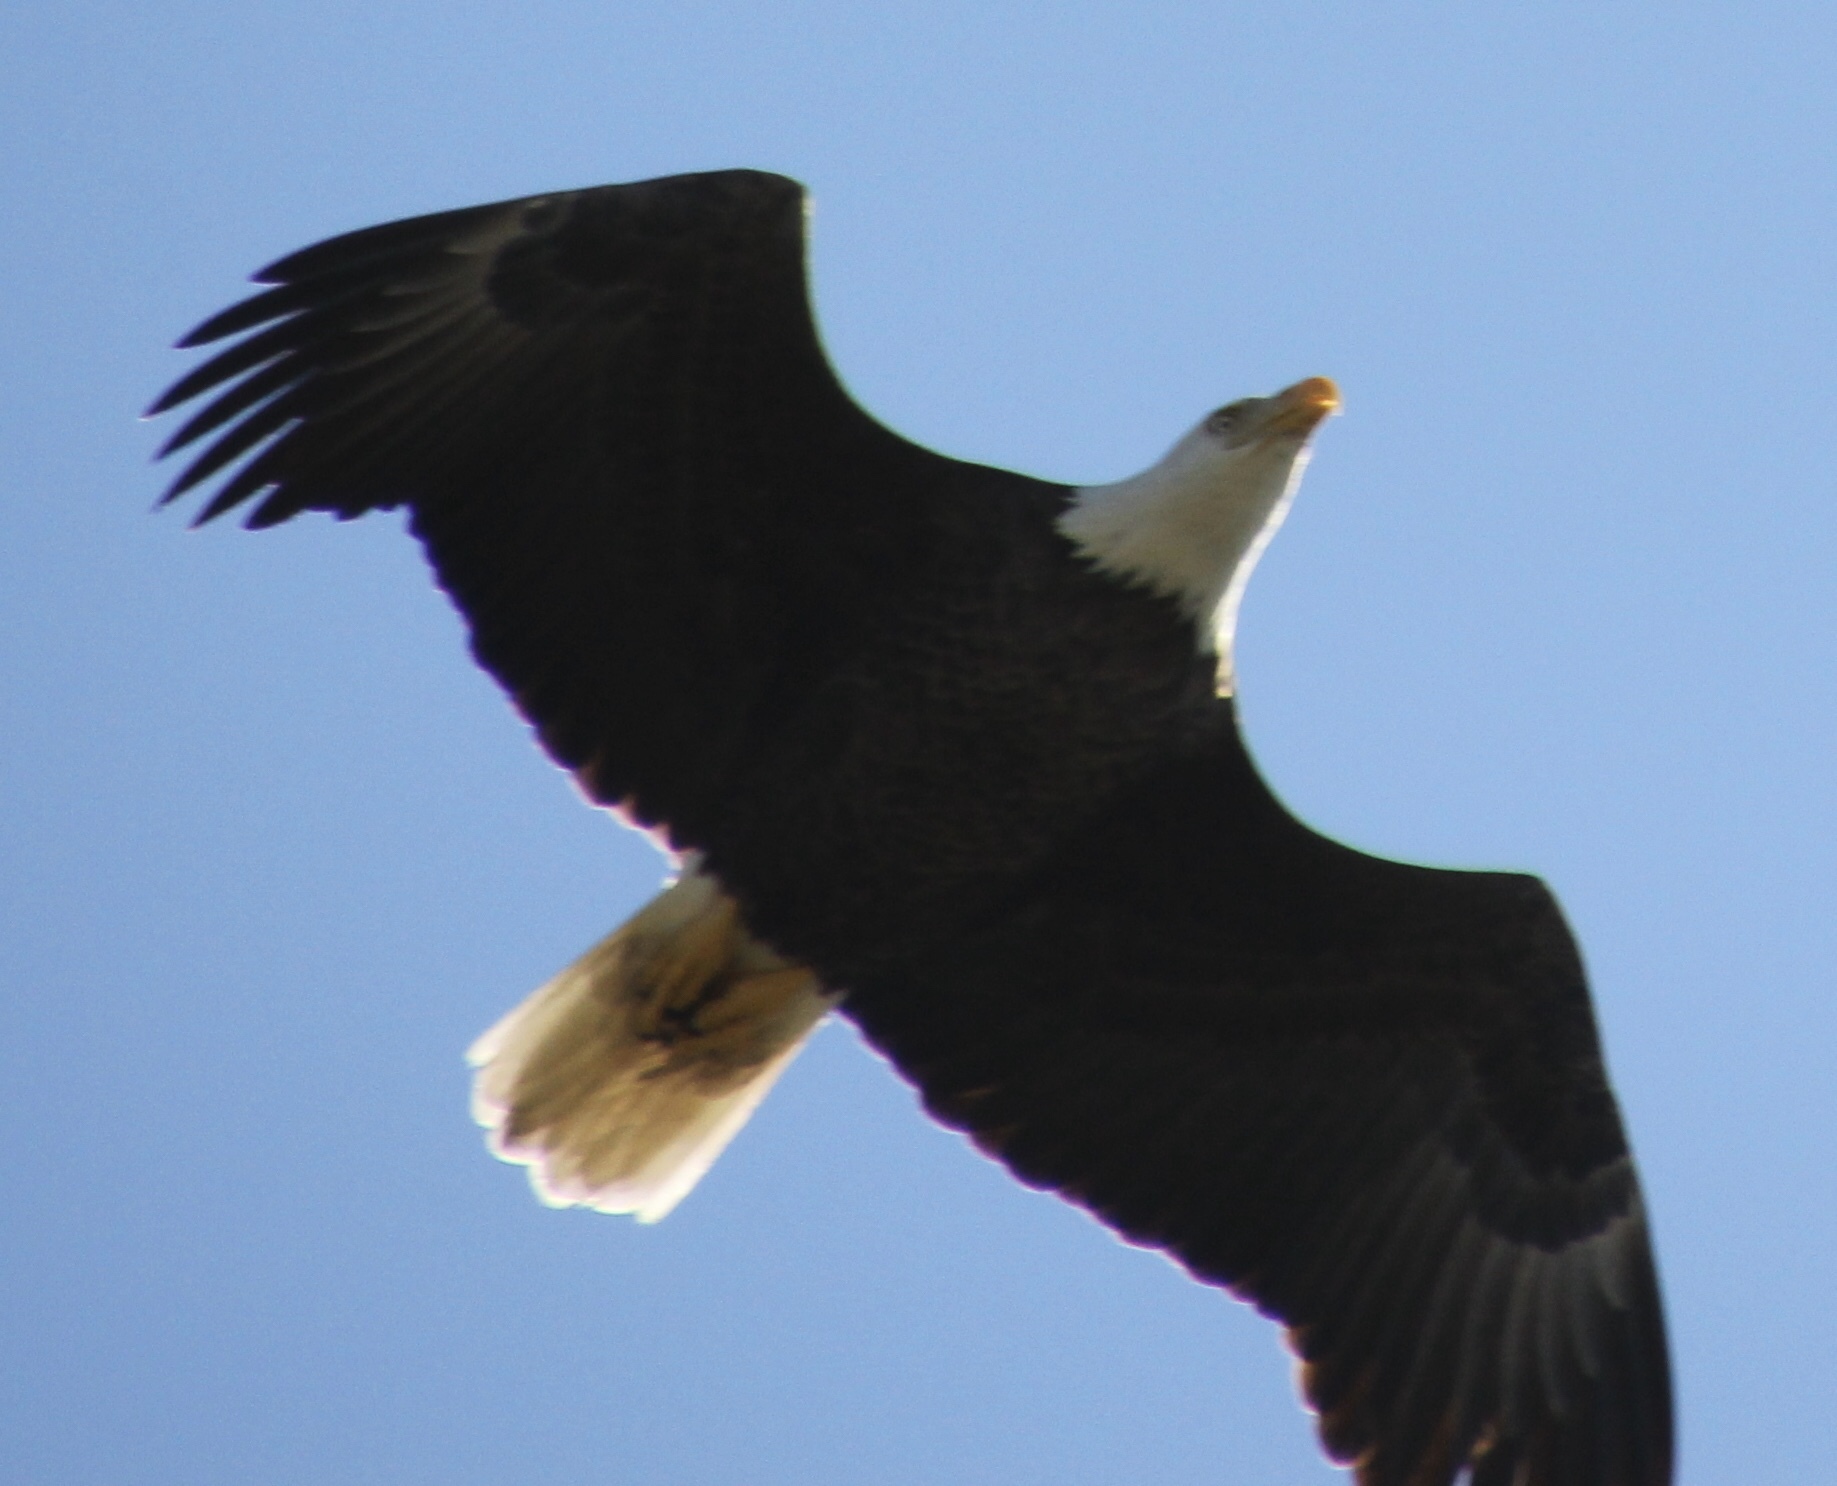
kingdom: Animalia
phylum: Chordata
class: Aves
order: Accipitriformes
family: Accipitridae
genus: Haliaeetus
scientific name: Haliaeetus leucocephalus
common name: Bald eagle
